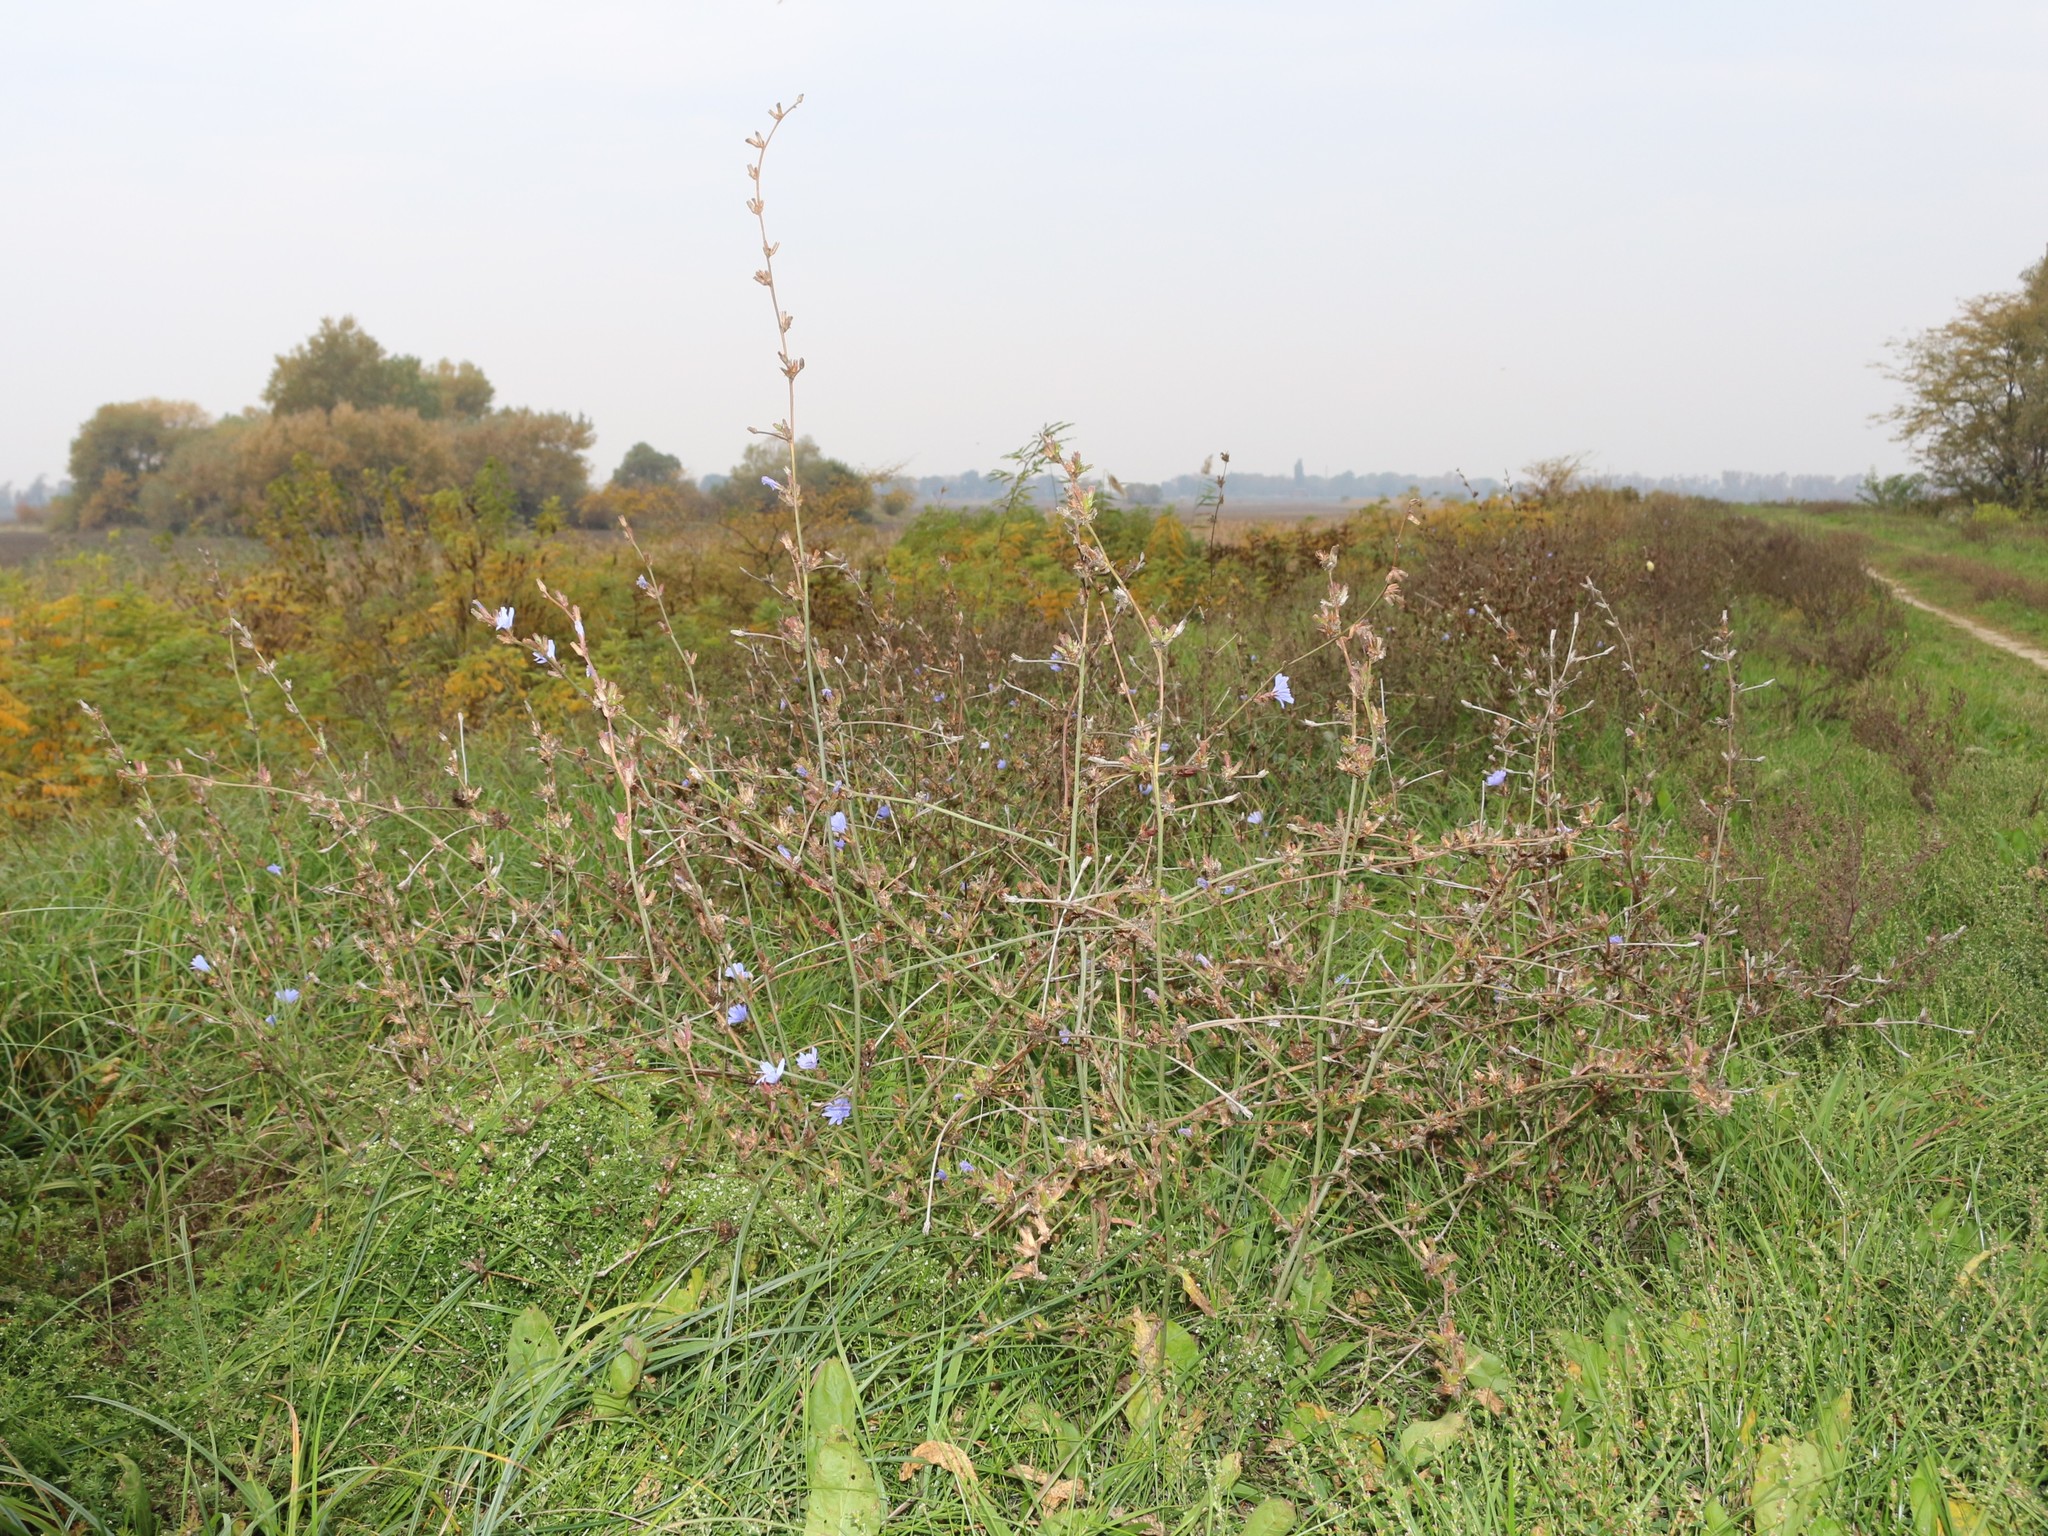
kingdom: Plantae
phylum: Tracheophyta
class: Magnoliopsida
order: Asterales
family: Asteraceae
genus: Cichorium
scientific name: Cichorium intybus
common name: Chicory
